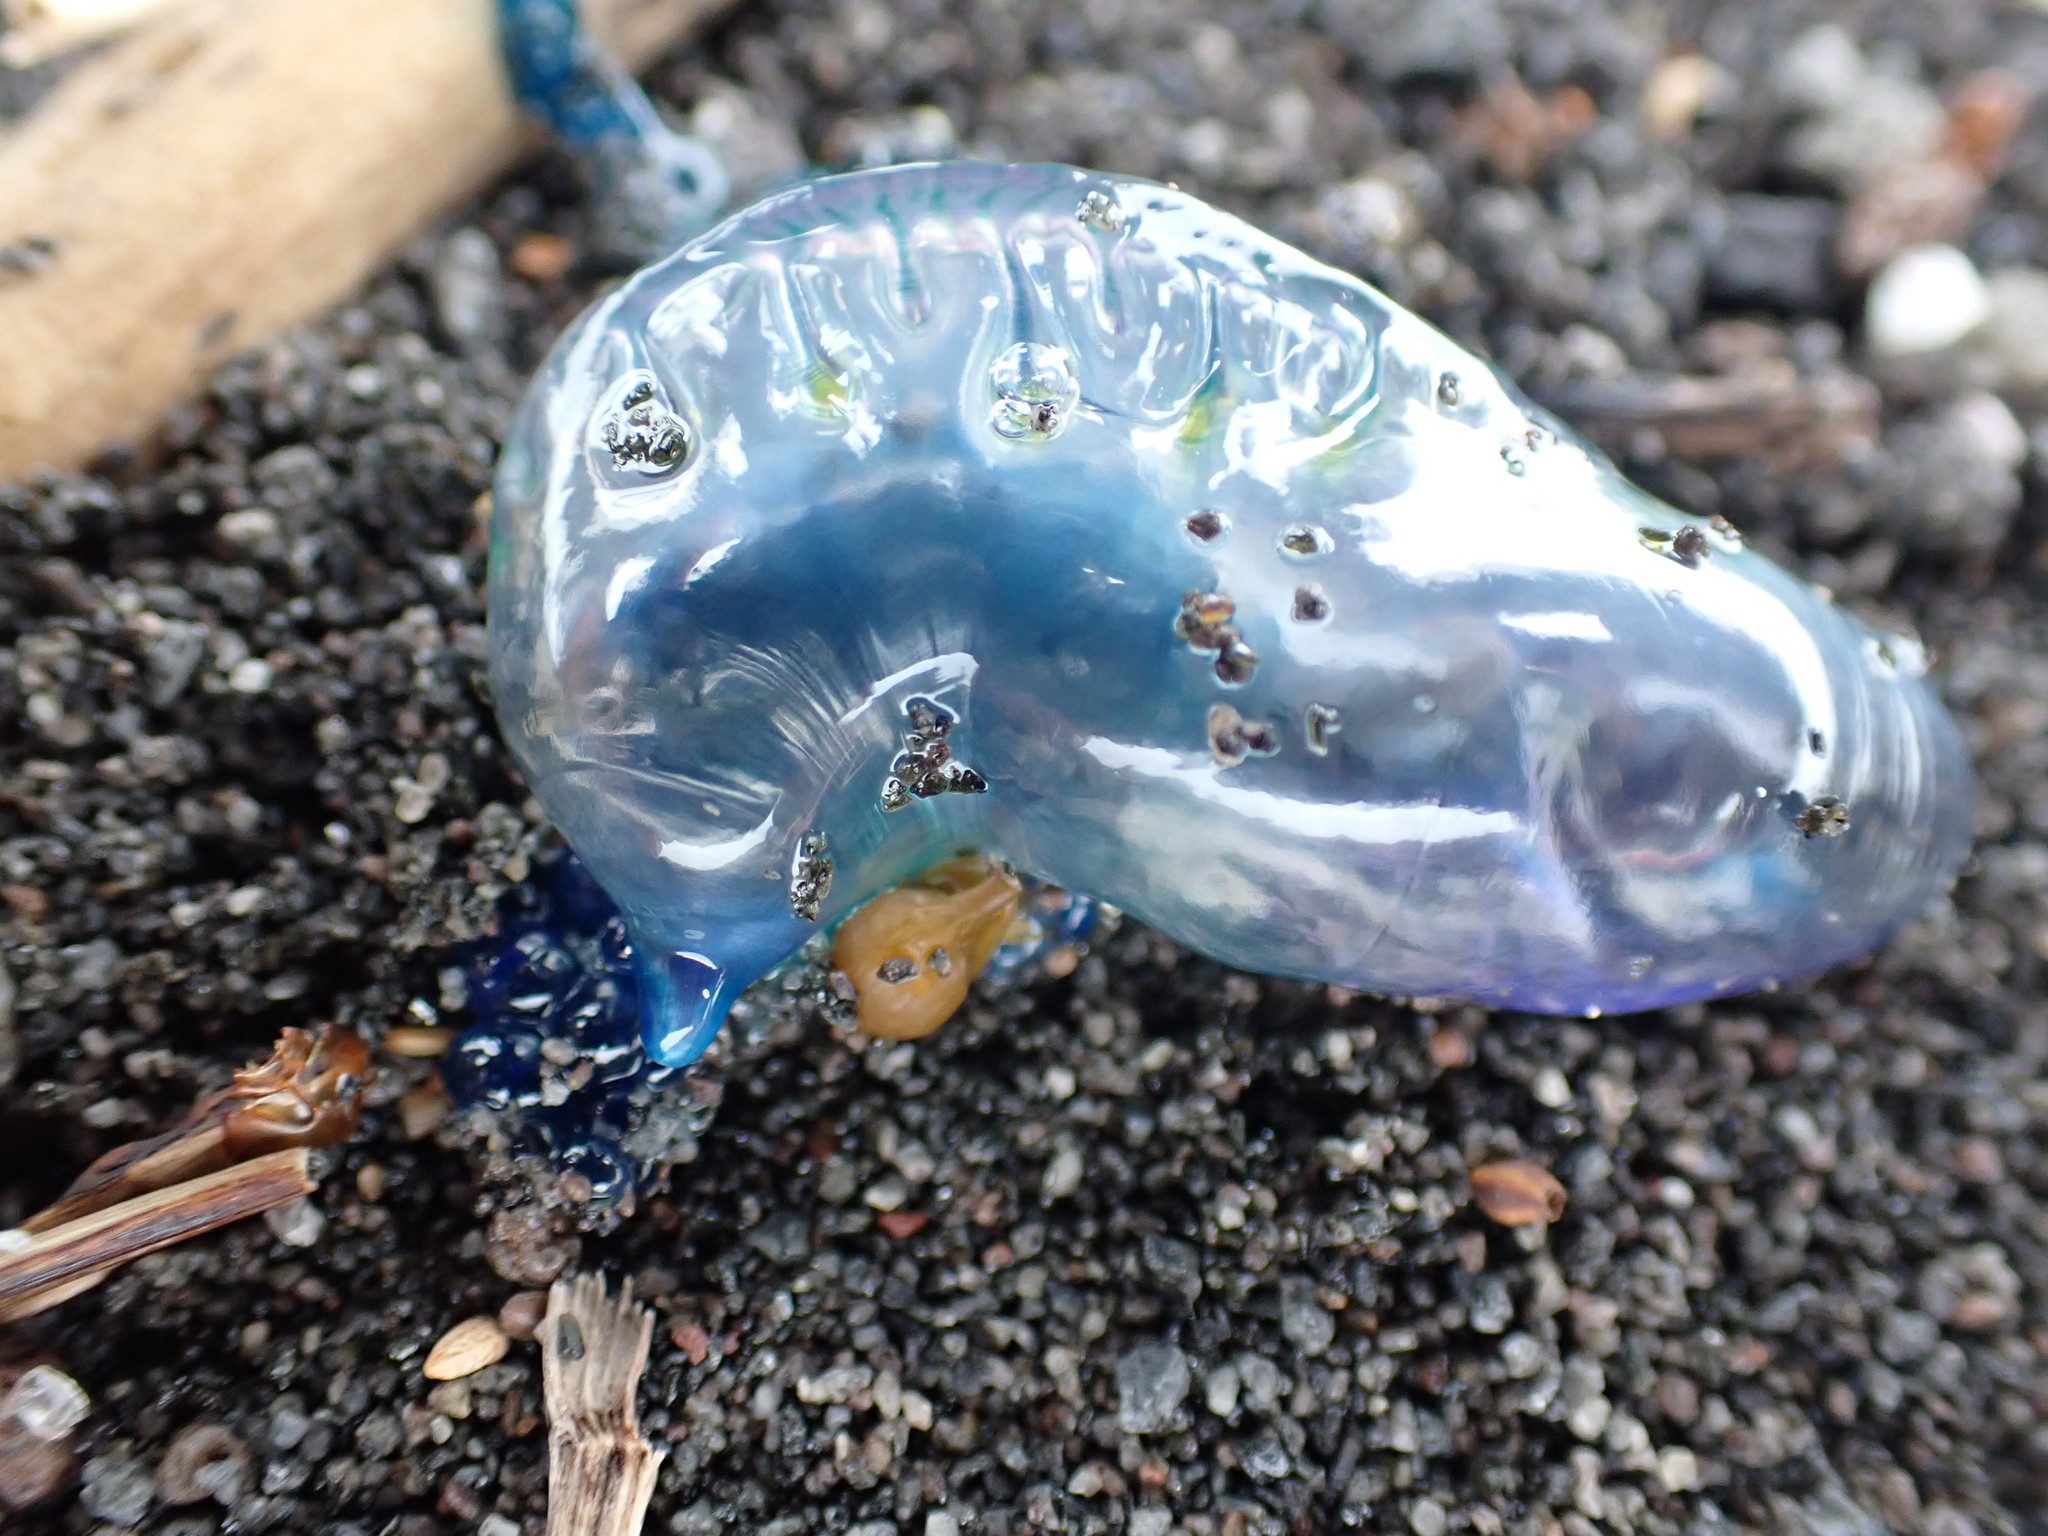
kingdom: Animalia
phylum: Cnidaria
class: Hydrozoa
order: Siphonophorae
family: Physaliidae
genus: Physalia
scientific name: Physalia physalis
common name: Portuguese man-of-war
